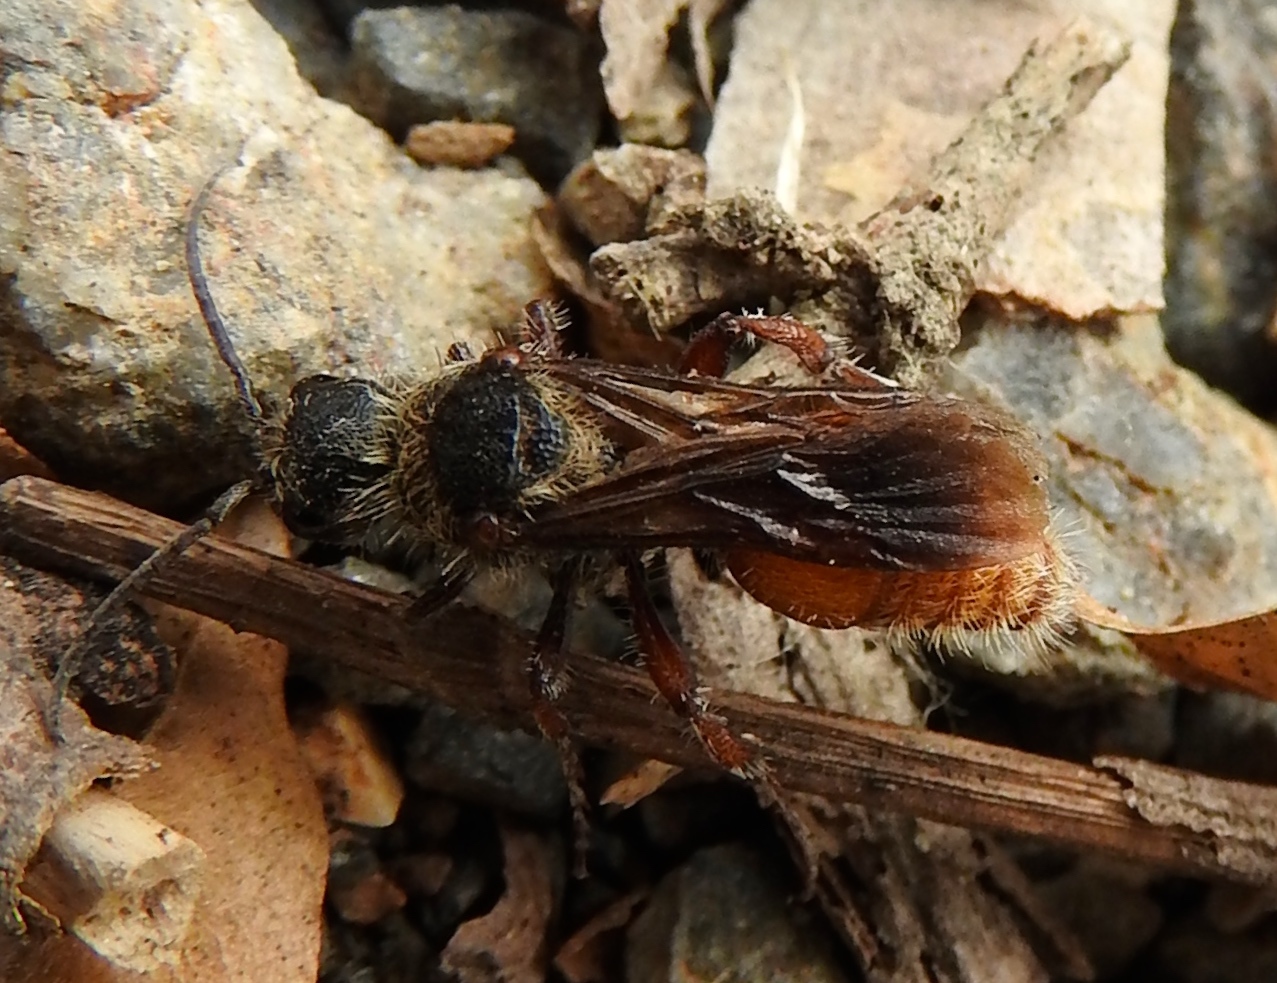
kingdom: Animalia
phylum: Arthropoda
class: Insecta
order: Hymenoptera
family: Mutillidae
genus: Dasymutilla
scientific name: Dasymutilla foxi
